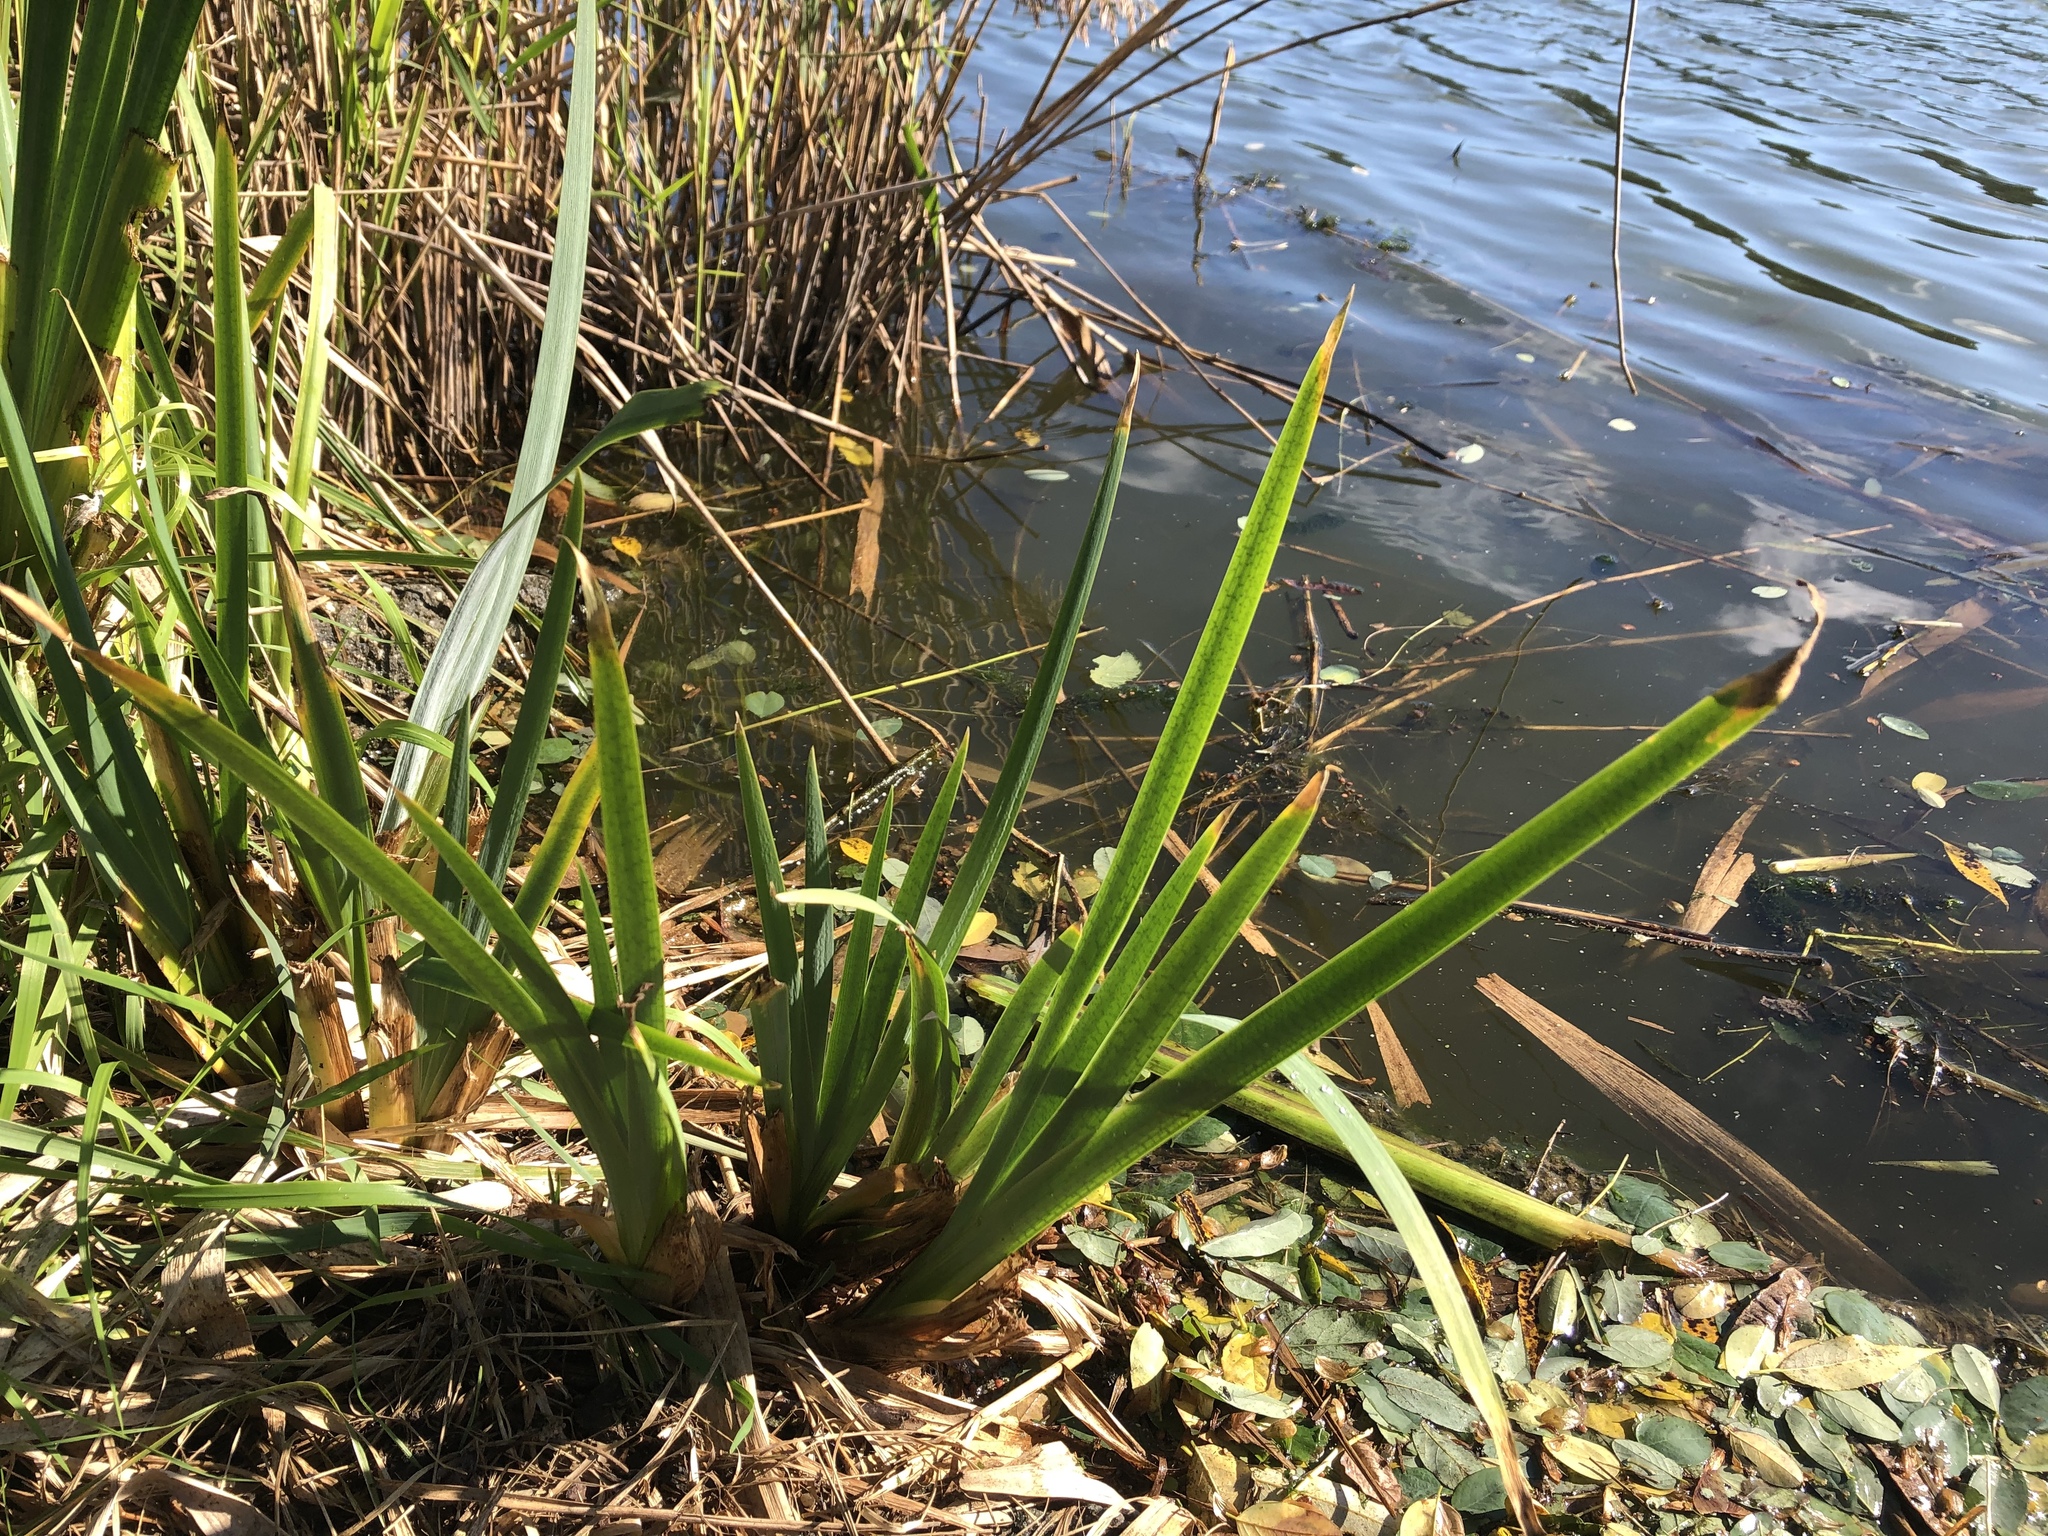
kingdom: Plantae
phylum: Tracheophyta
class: Liliopsida
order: Asparagales
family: Iridaceae
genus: Iris
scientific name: Iris pseudacorus
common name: Yellow flag
